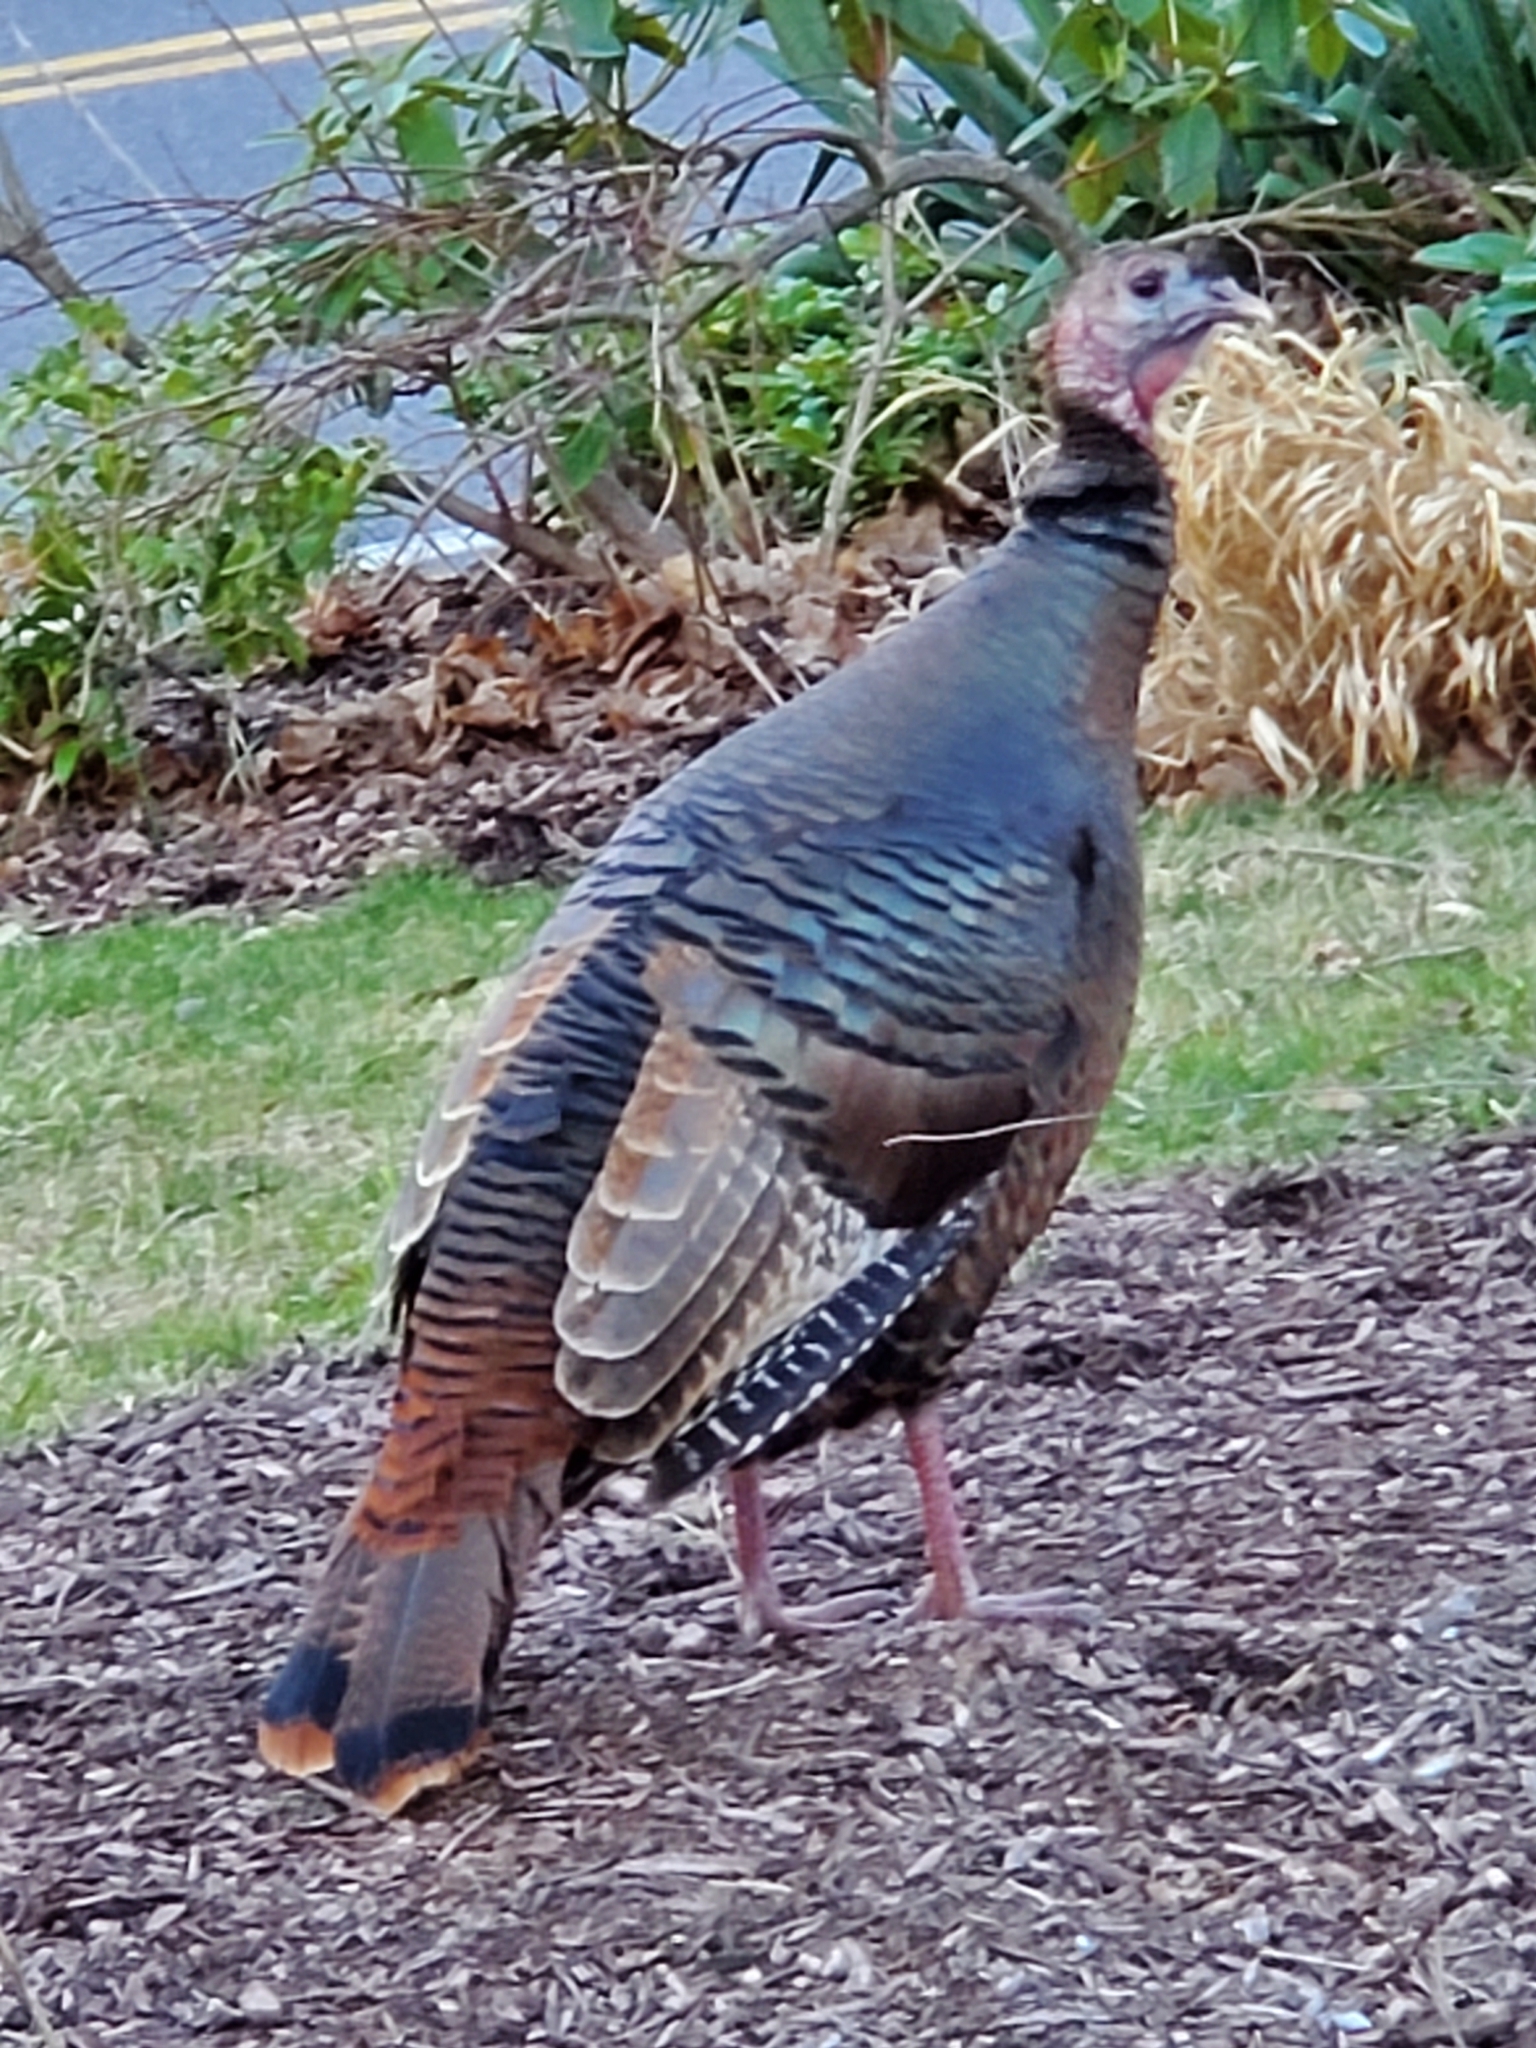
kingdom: Animalia
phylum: Chordata
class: Aves
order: Galliformes
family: Phasianidae
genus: Meleagris
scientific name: Meleagris gallopavo
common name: Wild turkey
